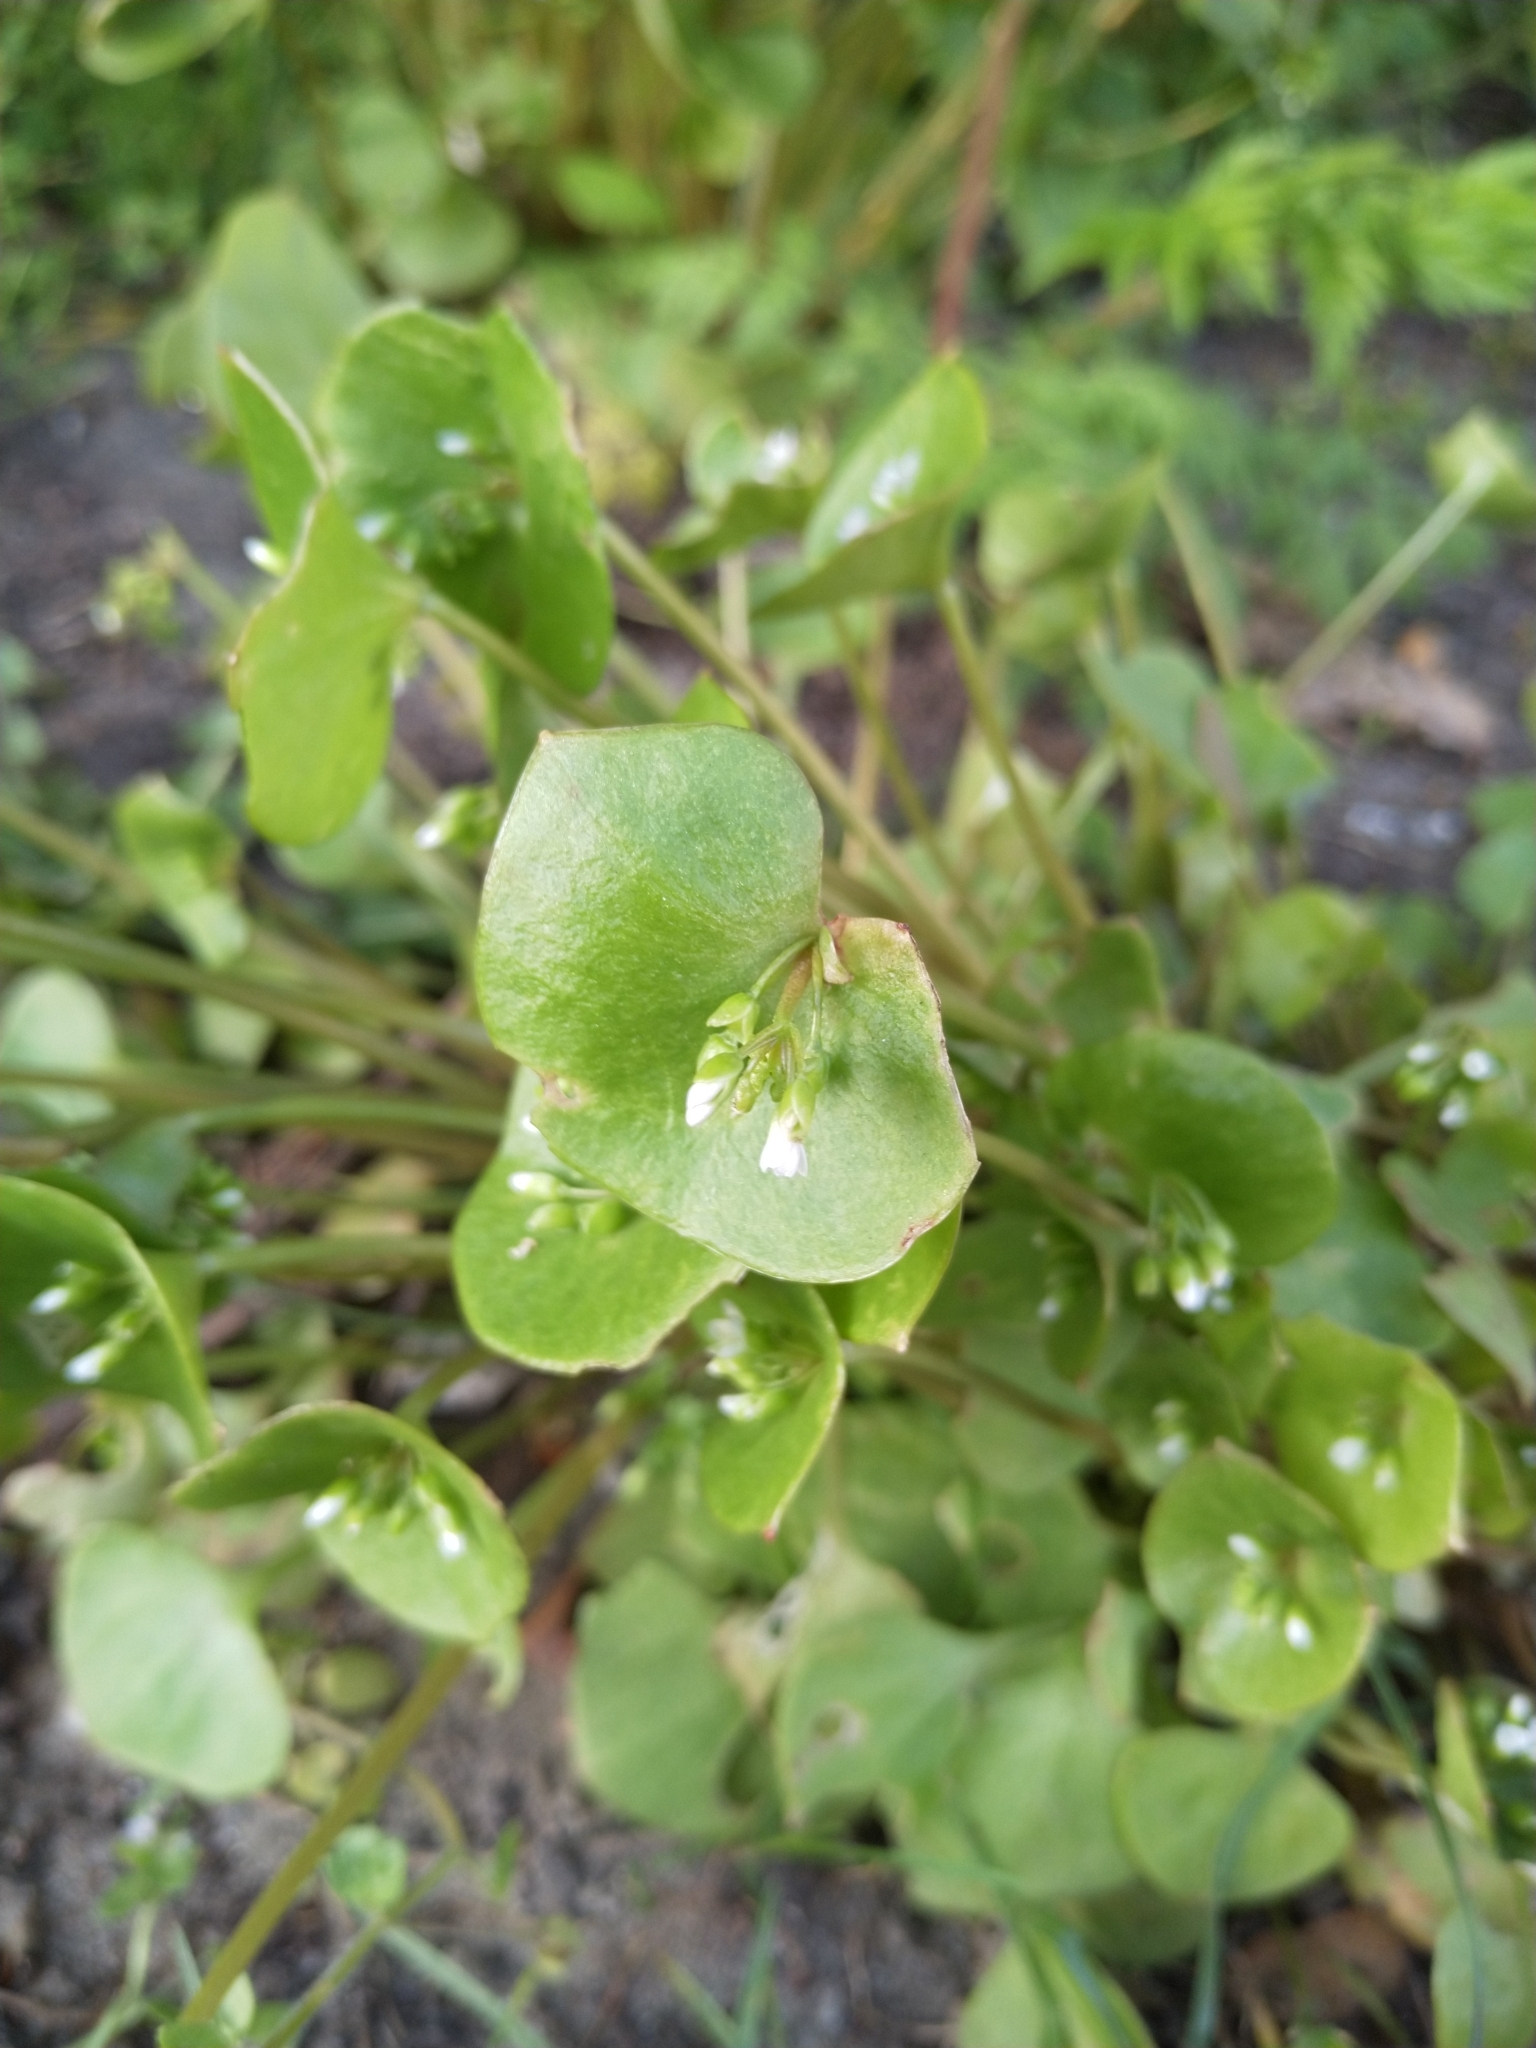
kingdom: Plantae
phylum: Tracheophyta
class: Magnoliopsida
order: Caryophyllales
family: Montiaceae
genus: Claytonia
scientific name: Claytonia perfoliata
